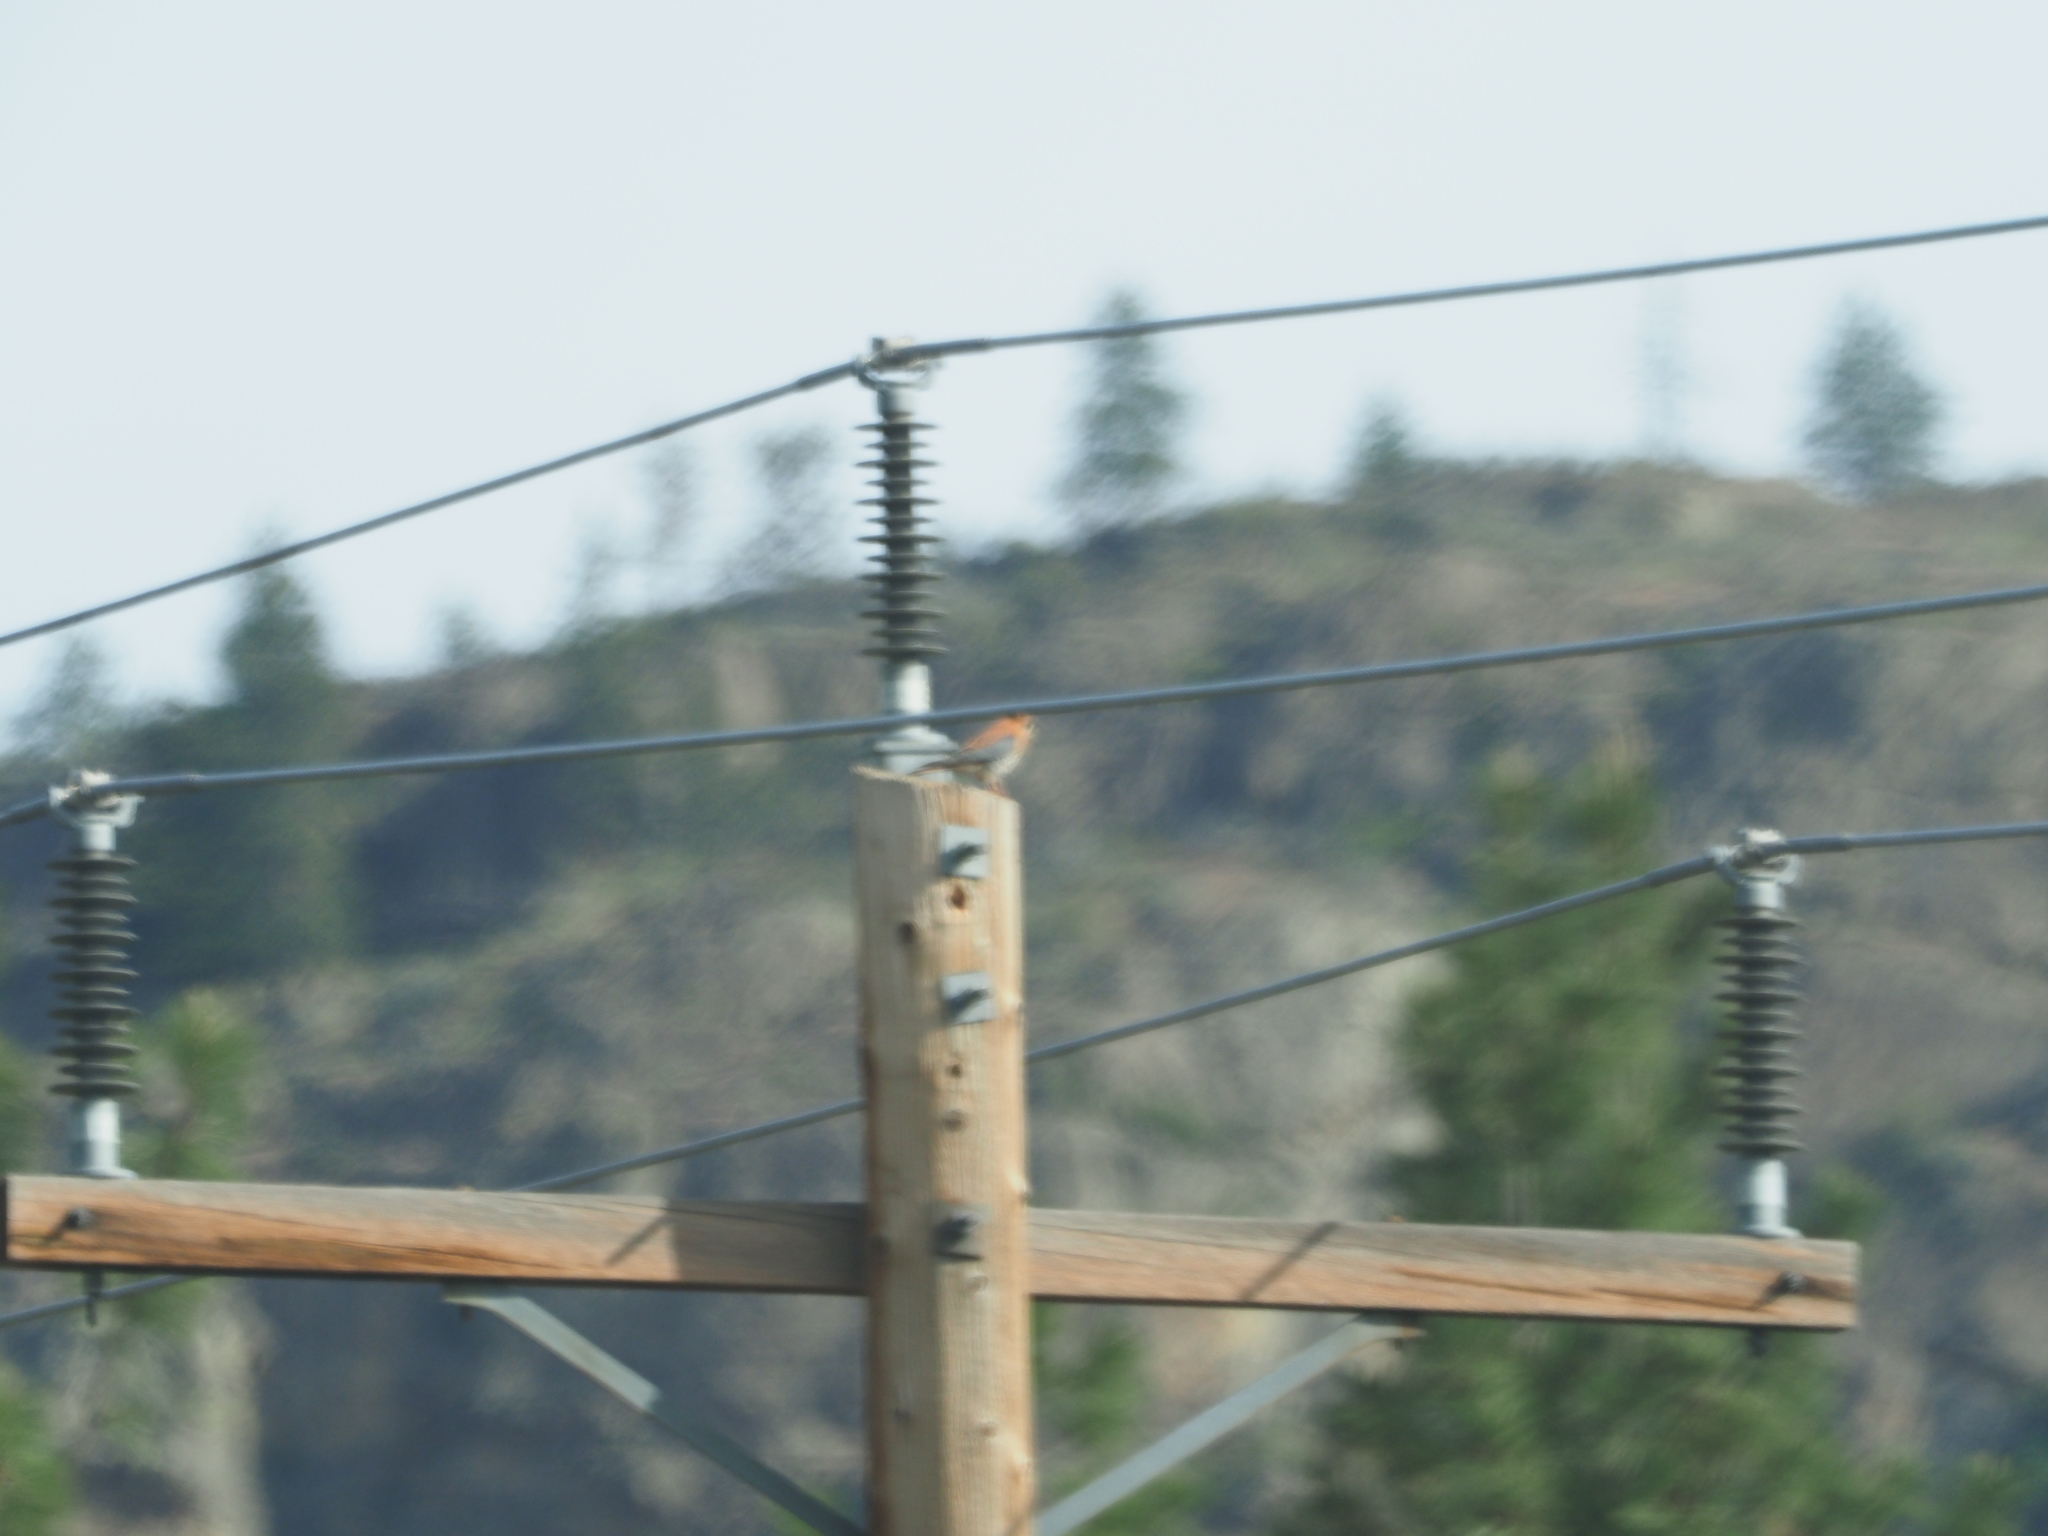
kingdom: Animalia
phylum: Chordata
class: Aves
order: Falconiformes
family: Falconidae
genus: Falco
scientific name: Falco sparverius
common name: American kestrel
